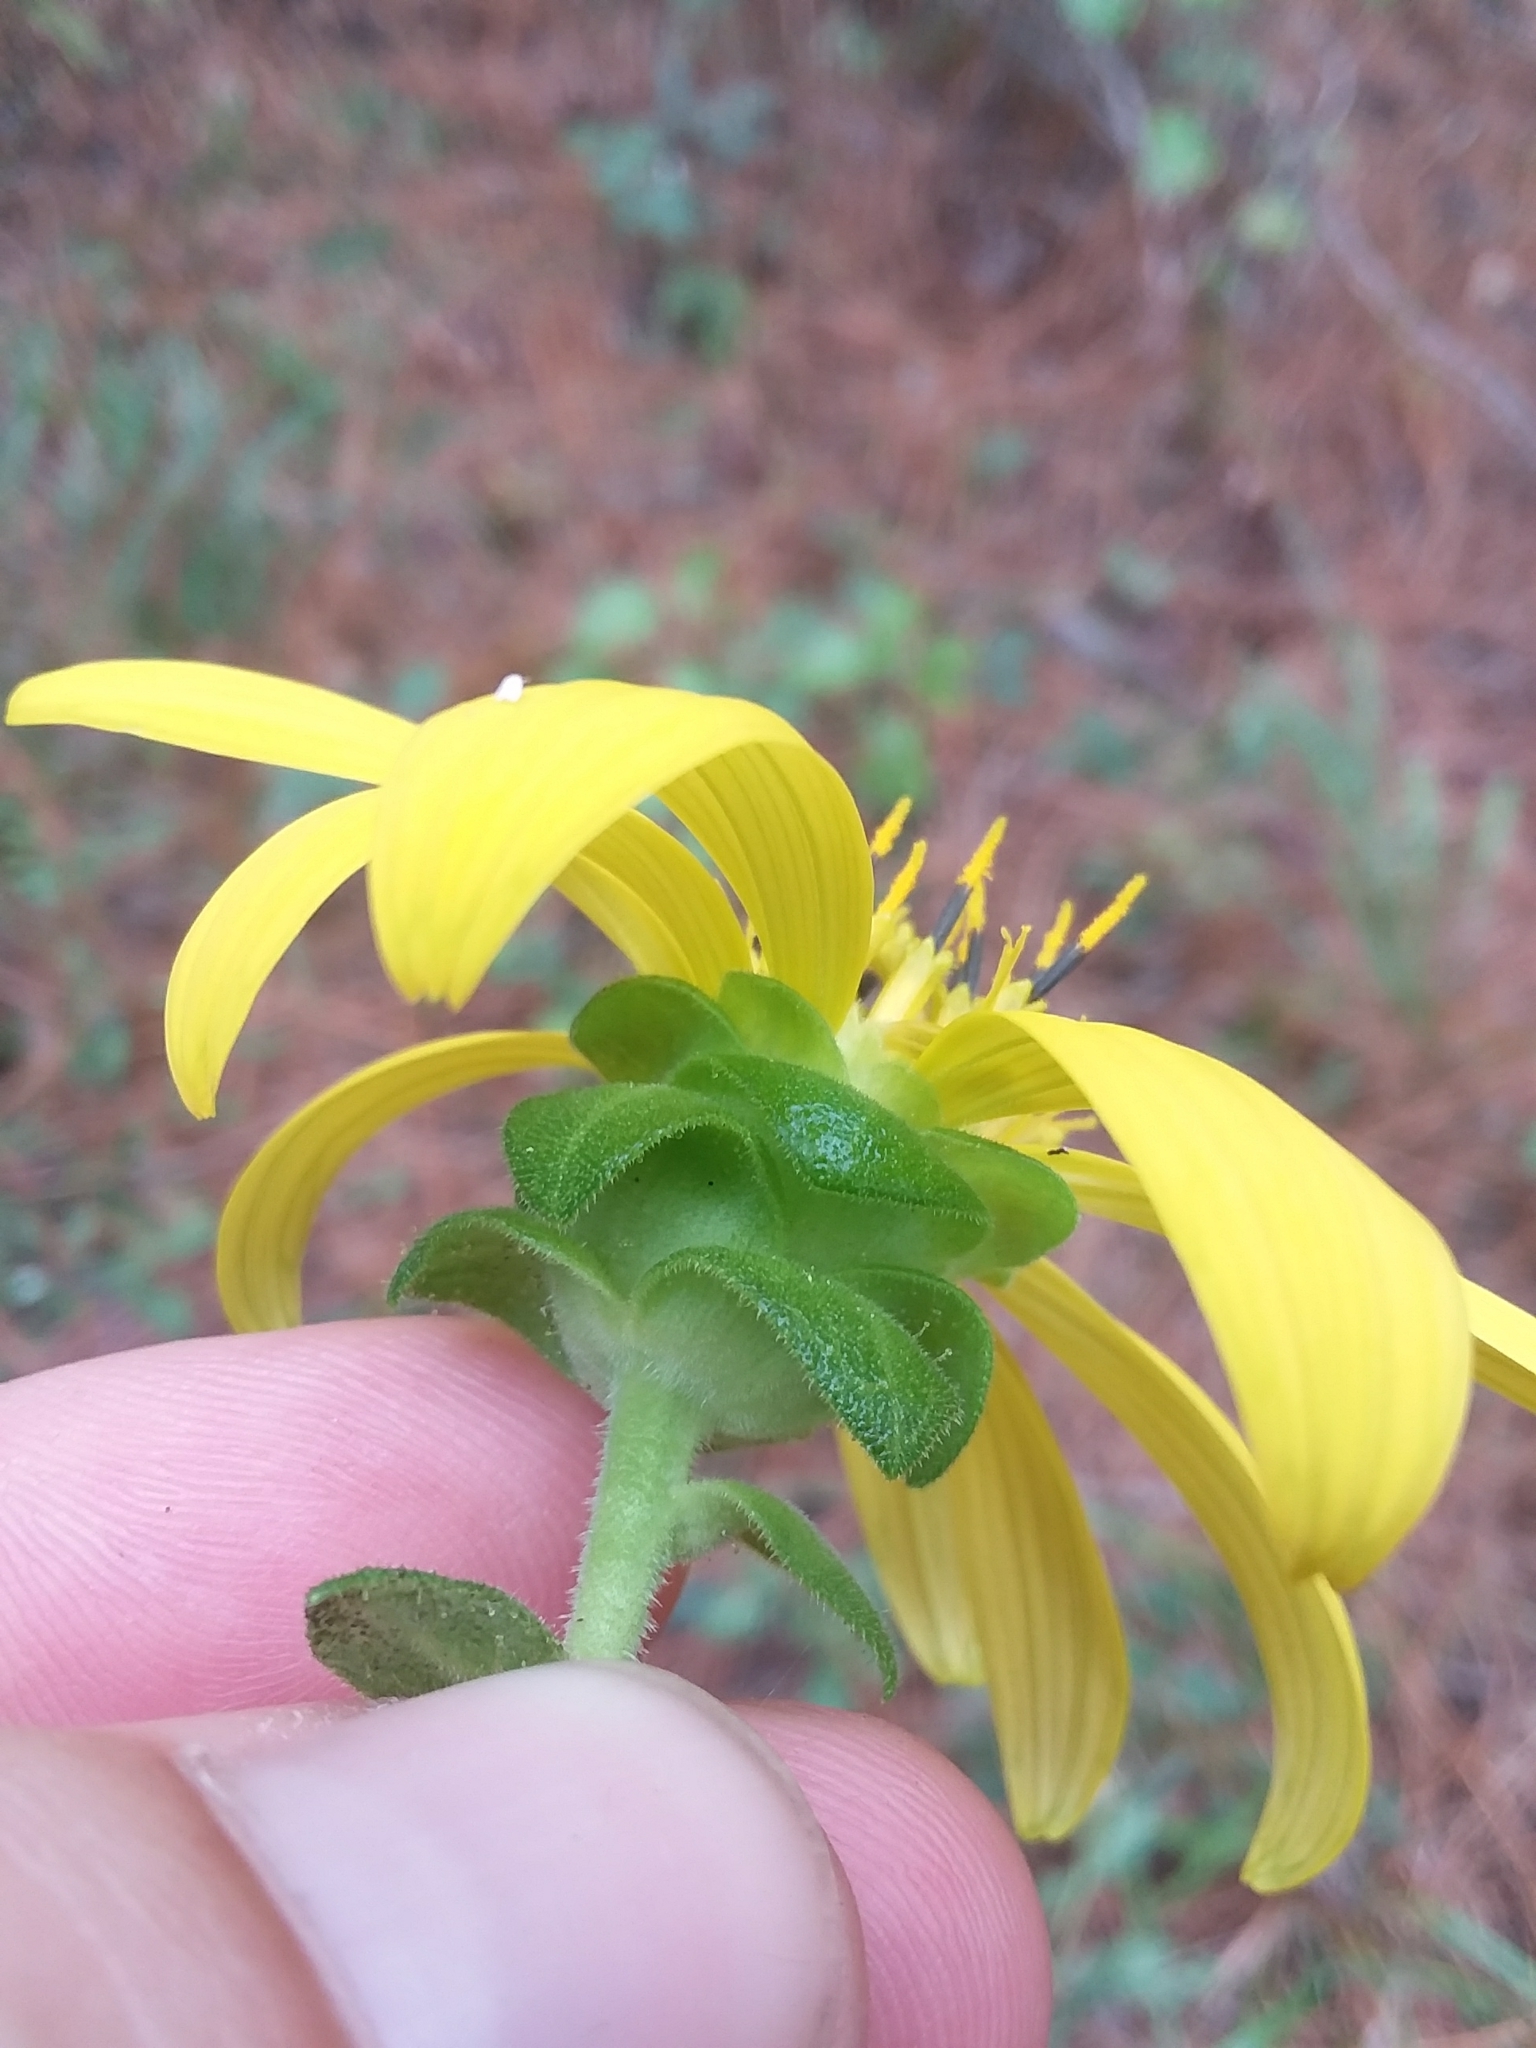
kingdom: Plantae
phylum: Tracheophyta
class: Magnoliopsida
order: Asterales
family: Asteraceae
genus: Silphium
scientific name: Silphium integrifolium
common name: Whole-leaf rosinweed
